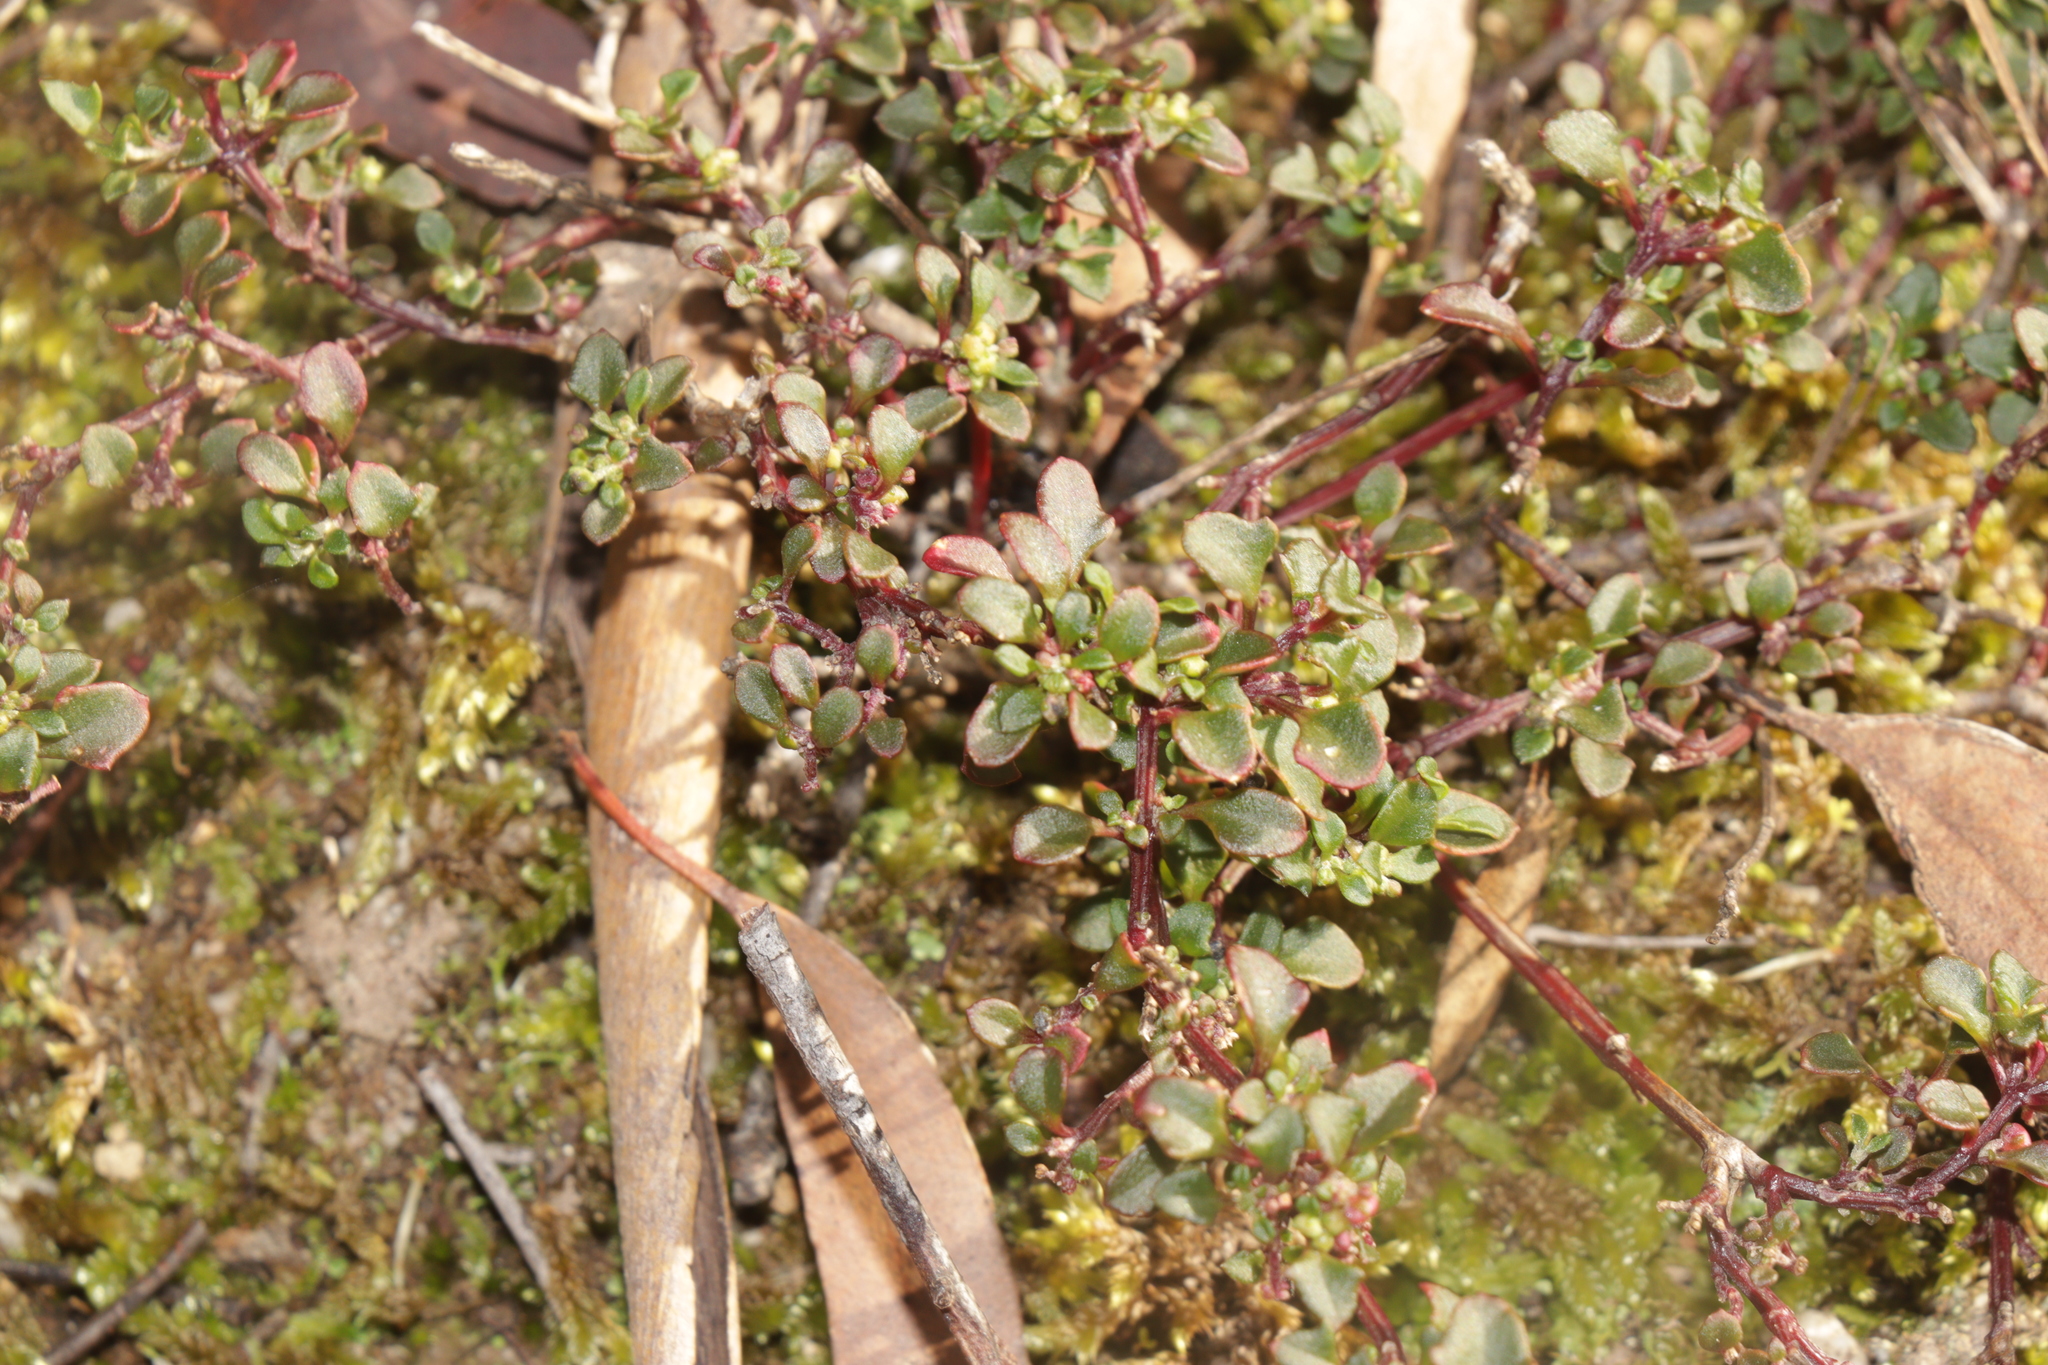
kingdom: Plantae
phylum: Tracheophyta
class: Magnoliopsida
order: Caryophyllales
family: Amaranthaceae
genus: Chenopodium
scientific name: Chenopodium robertianum
